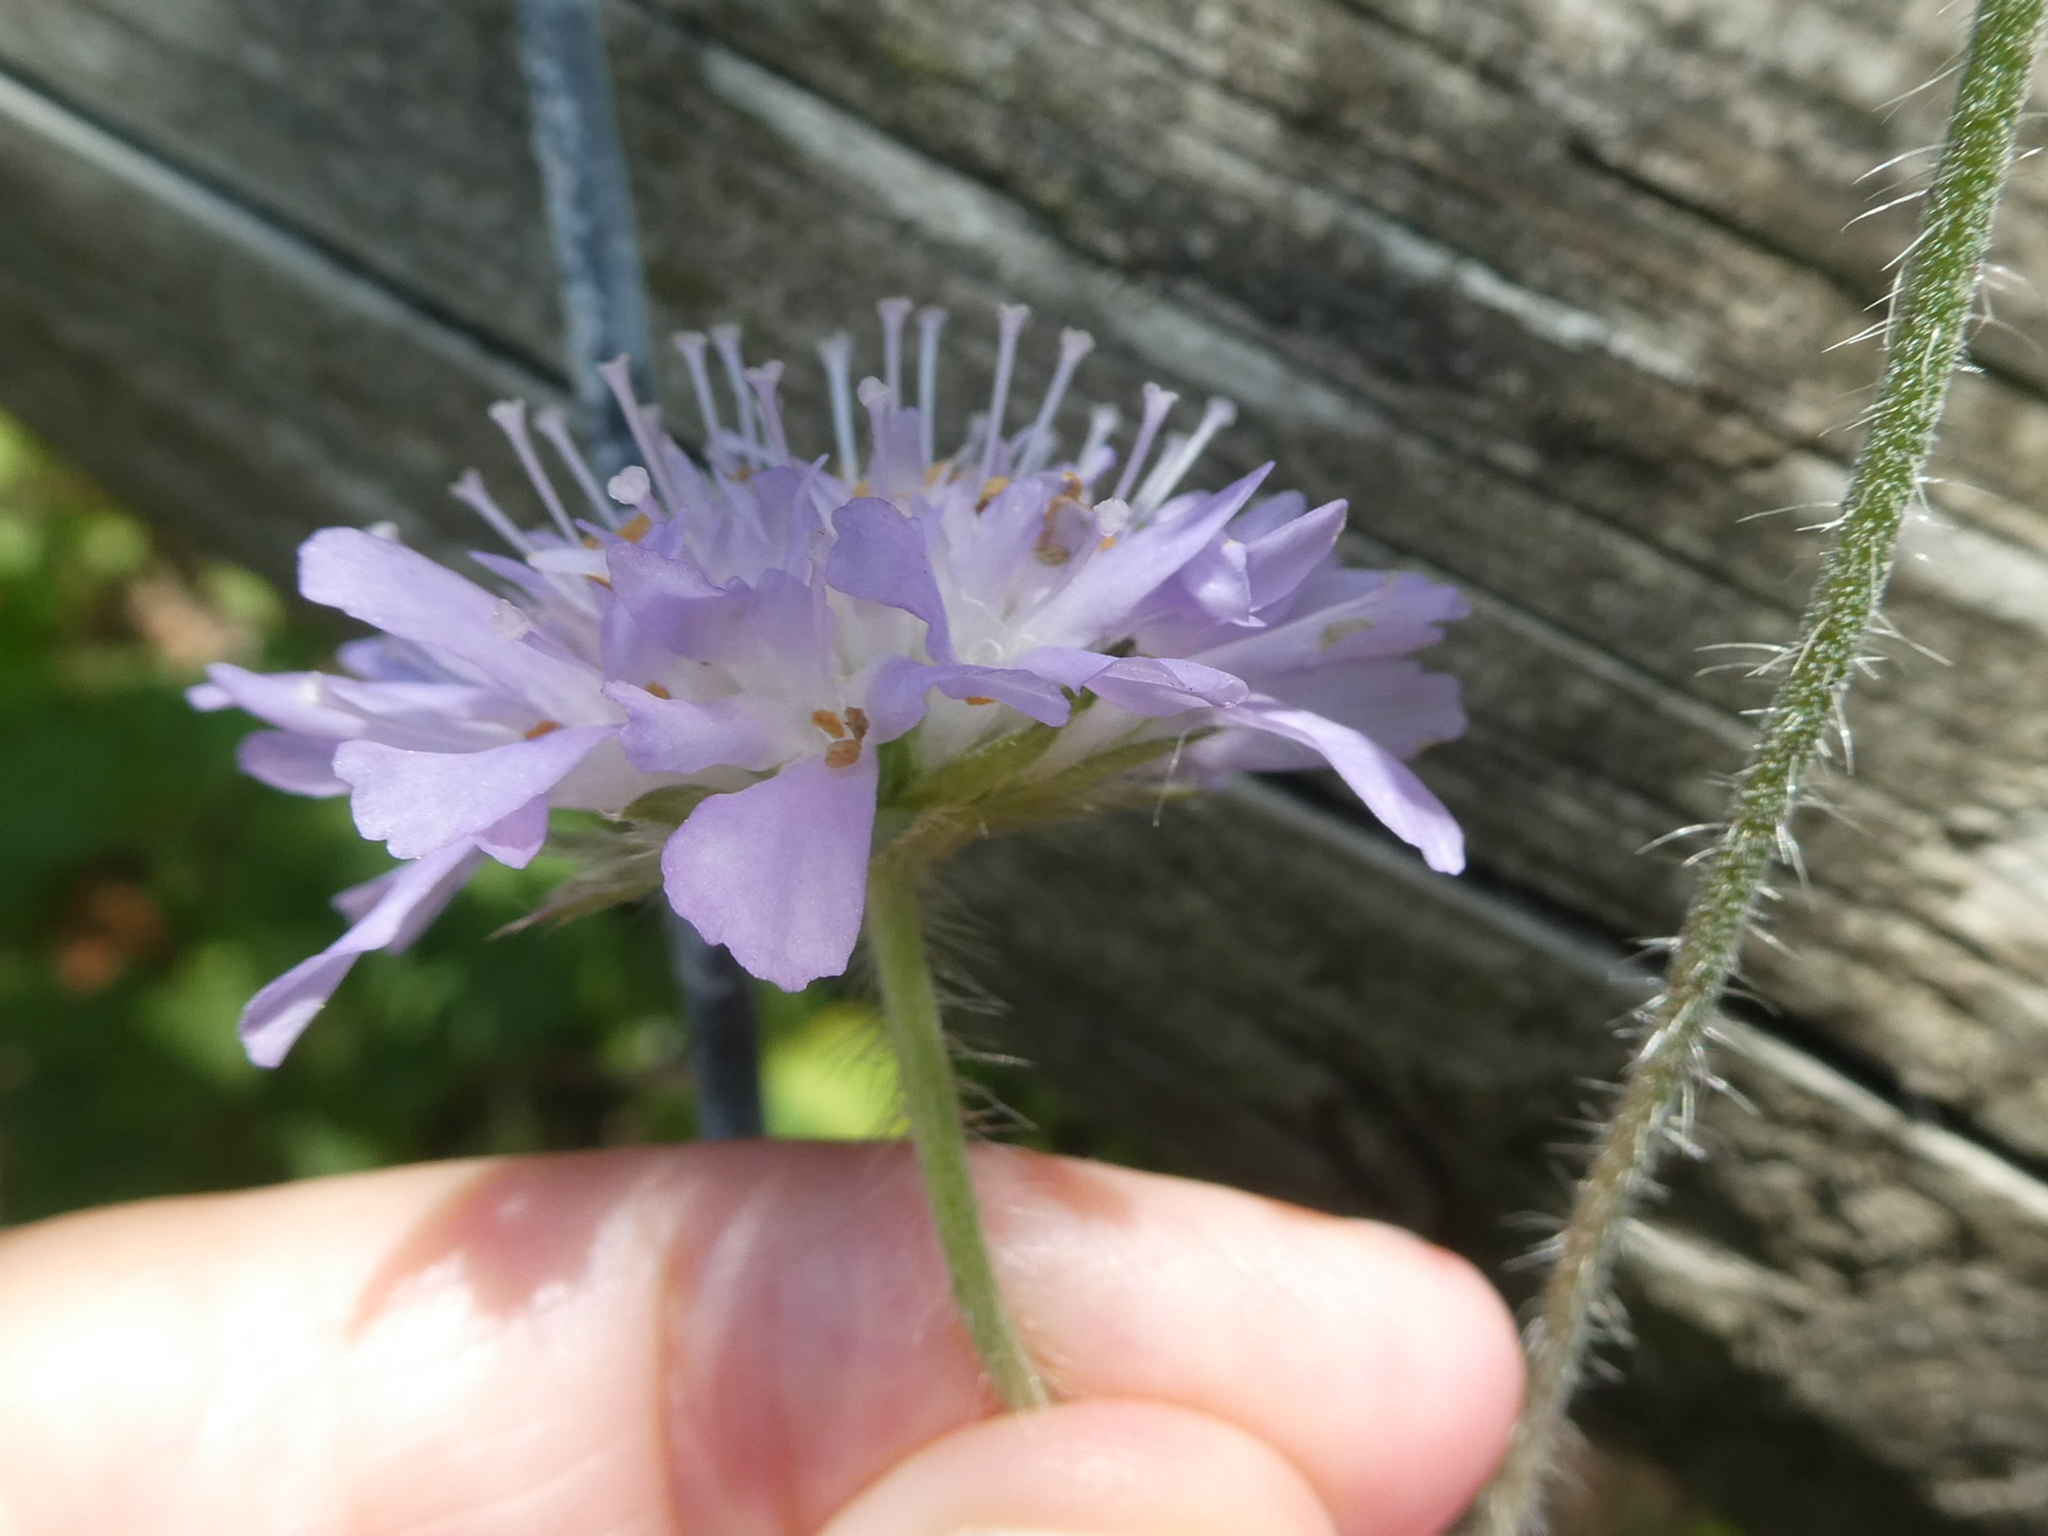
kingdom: Plantae
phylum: Tracheophyta
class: Magnoliopsida
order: Dipsacales
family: Caprifoliaceae
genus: Knautia
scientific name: Knautia arvensis
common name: Field scabiosa
